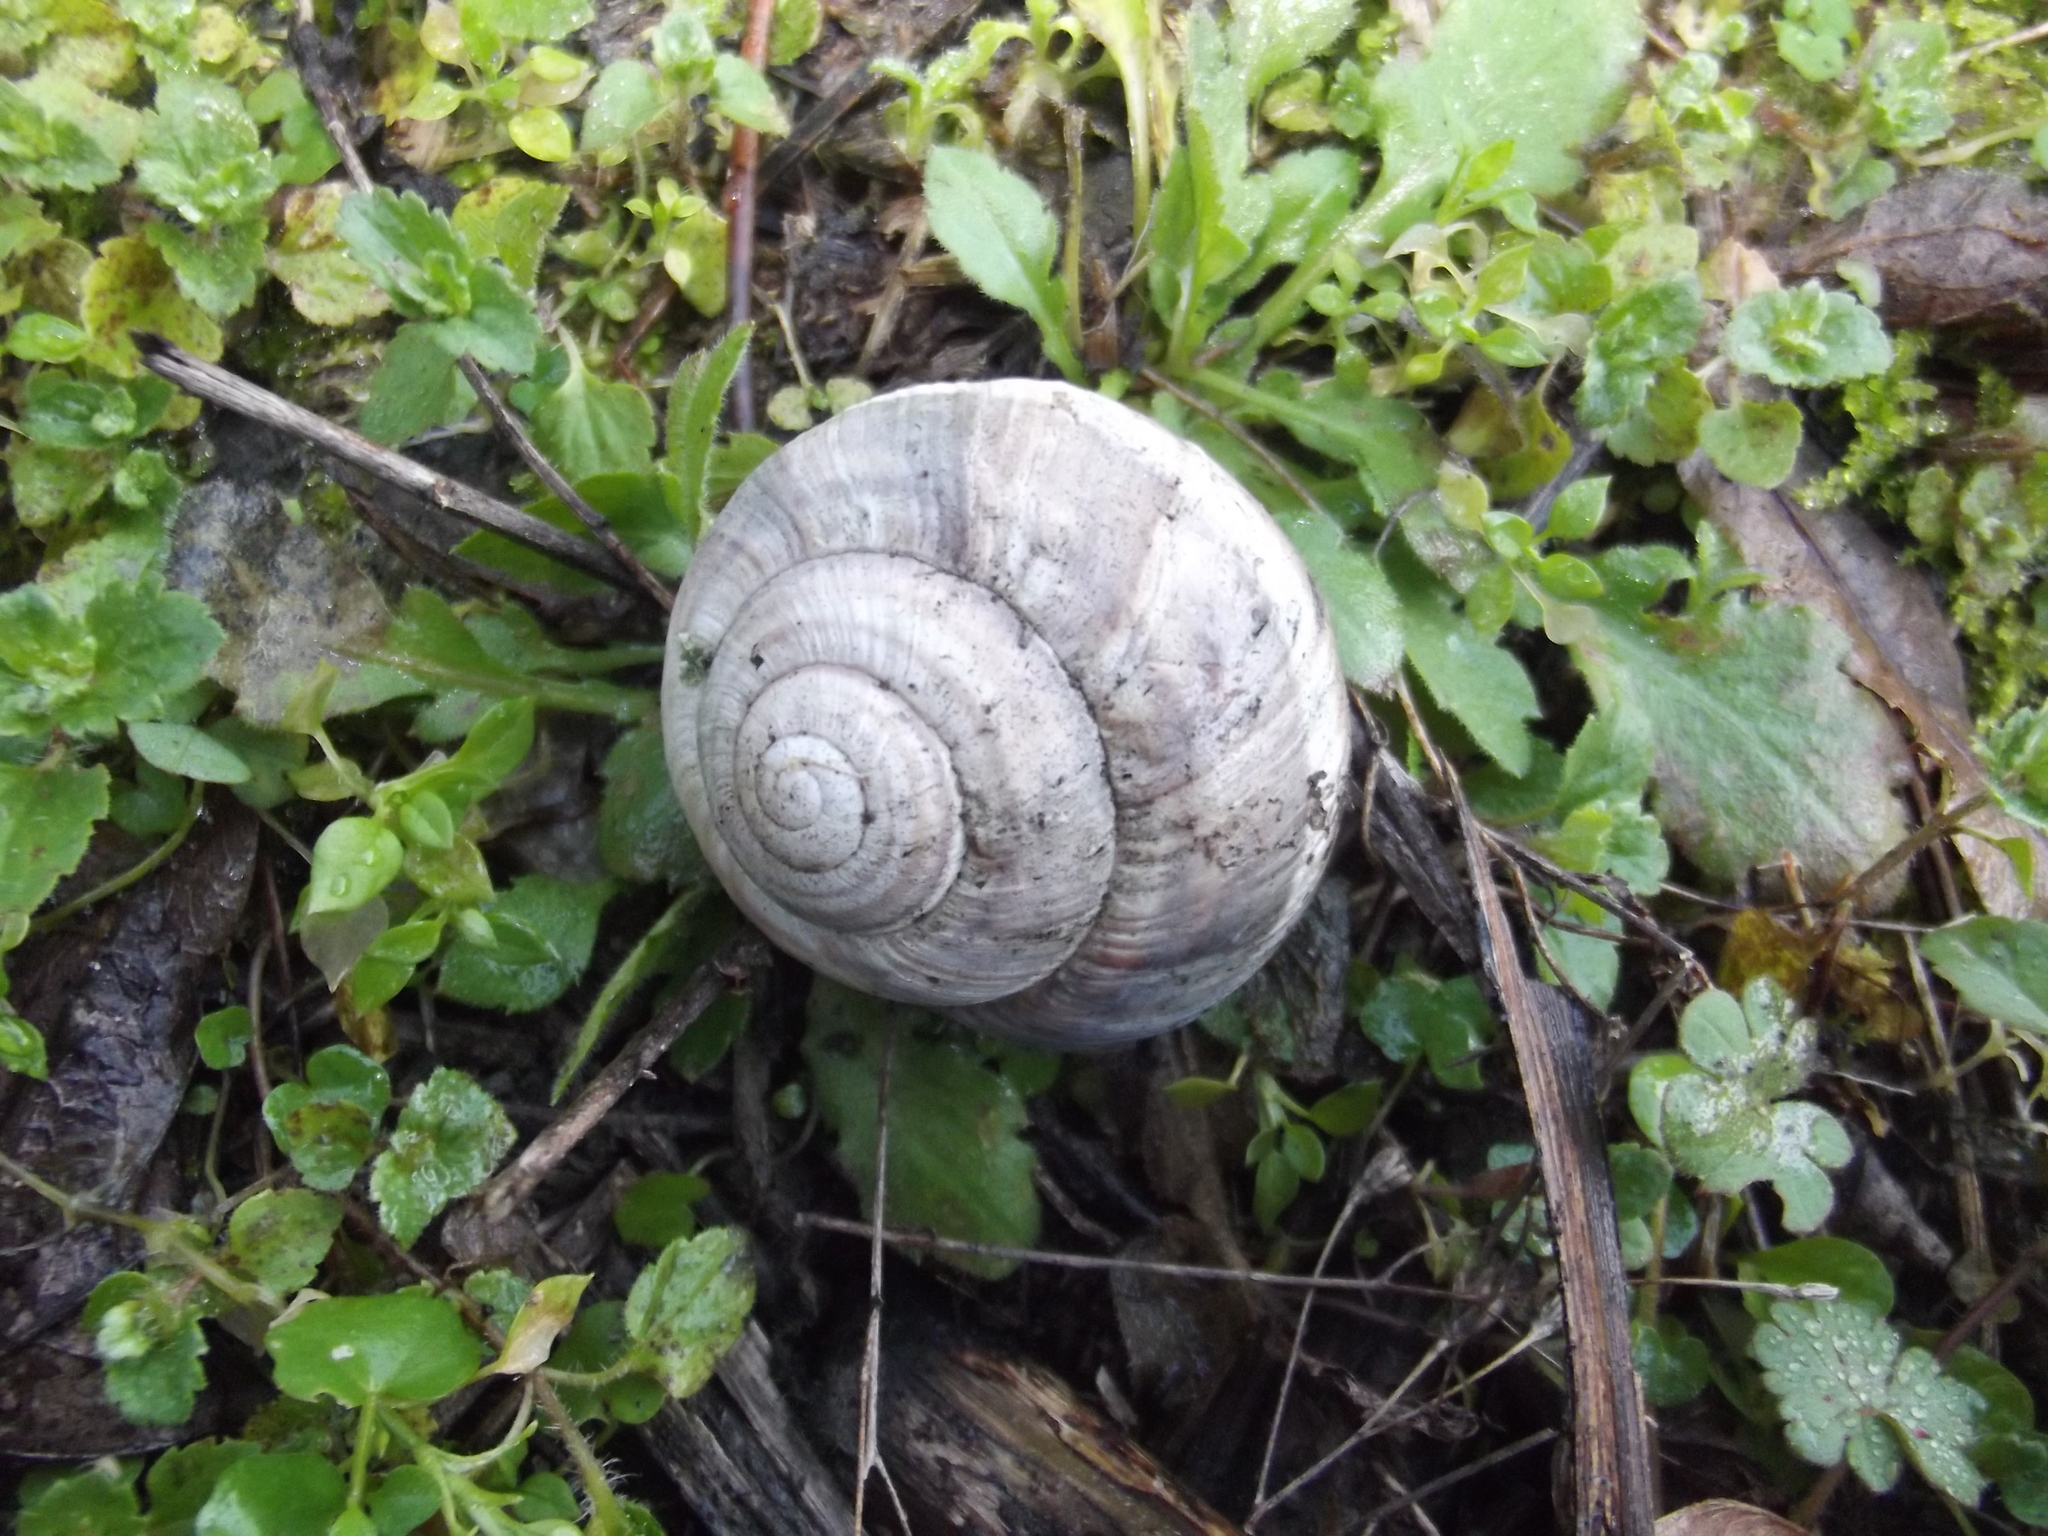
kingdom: Animalia
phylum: Mollusca
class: Gastropoda
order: Stylommatophora
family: Helicidae
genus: Helix
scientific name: Helix straminea
